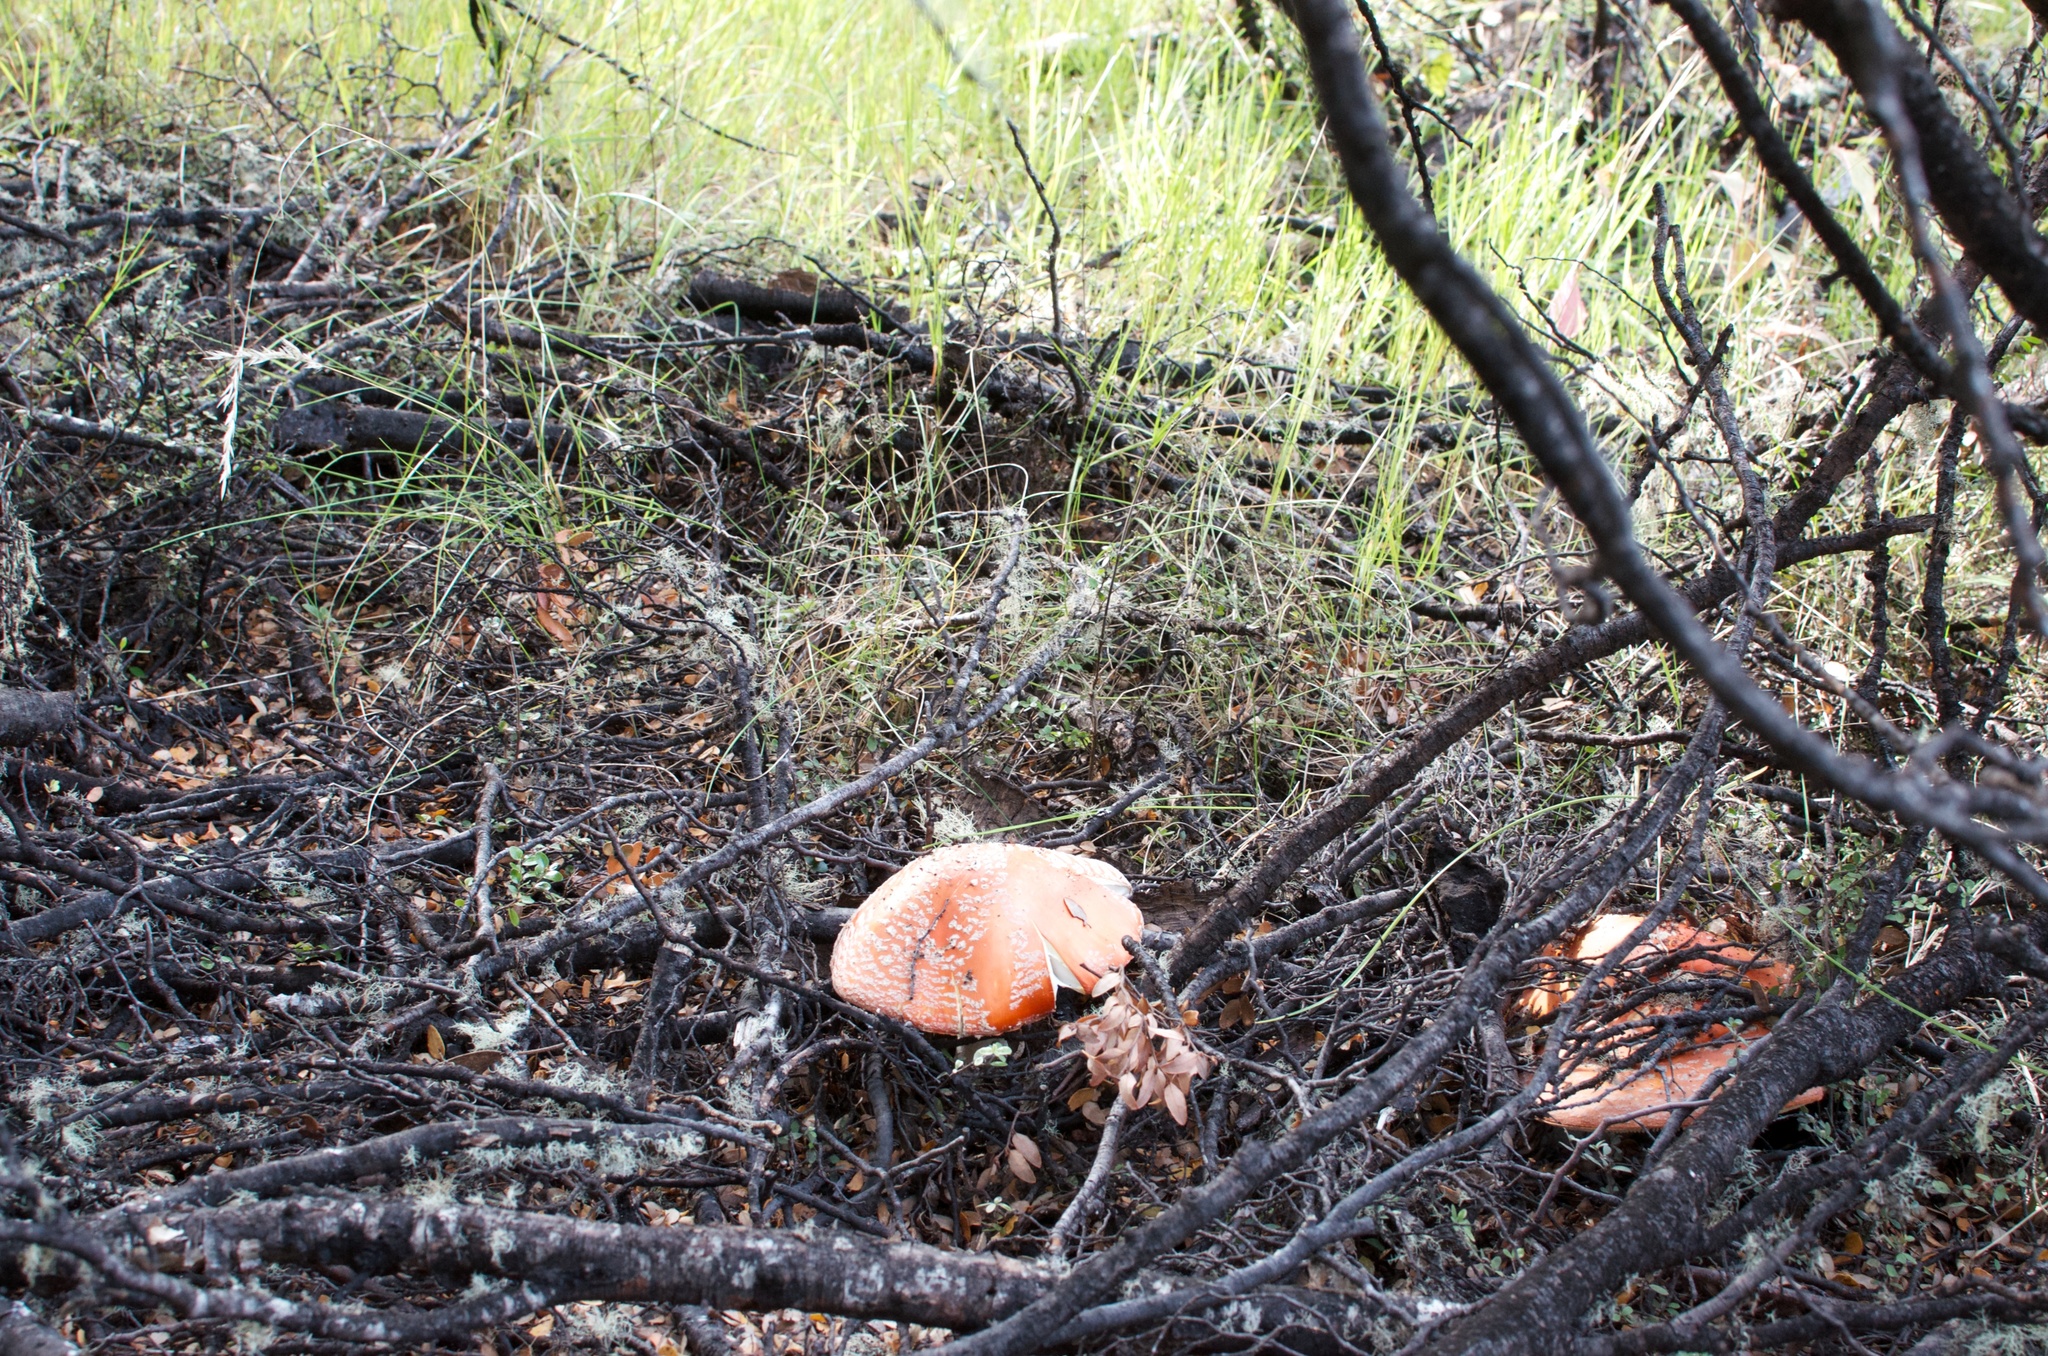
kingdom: Fungi
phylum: Basidiomycota
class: Agaricomycetes
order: Agaricales
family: Amanitaceae
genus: Amanita
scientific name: Amanita muscaria
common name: Fly agaric
